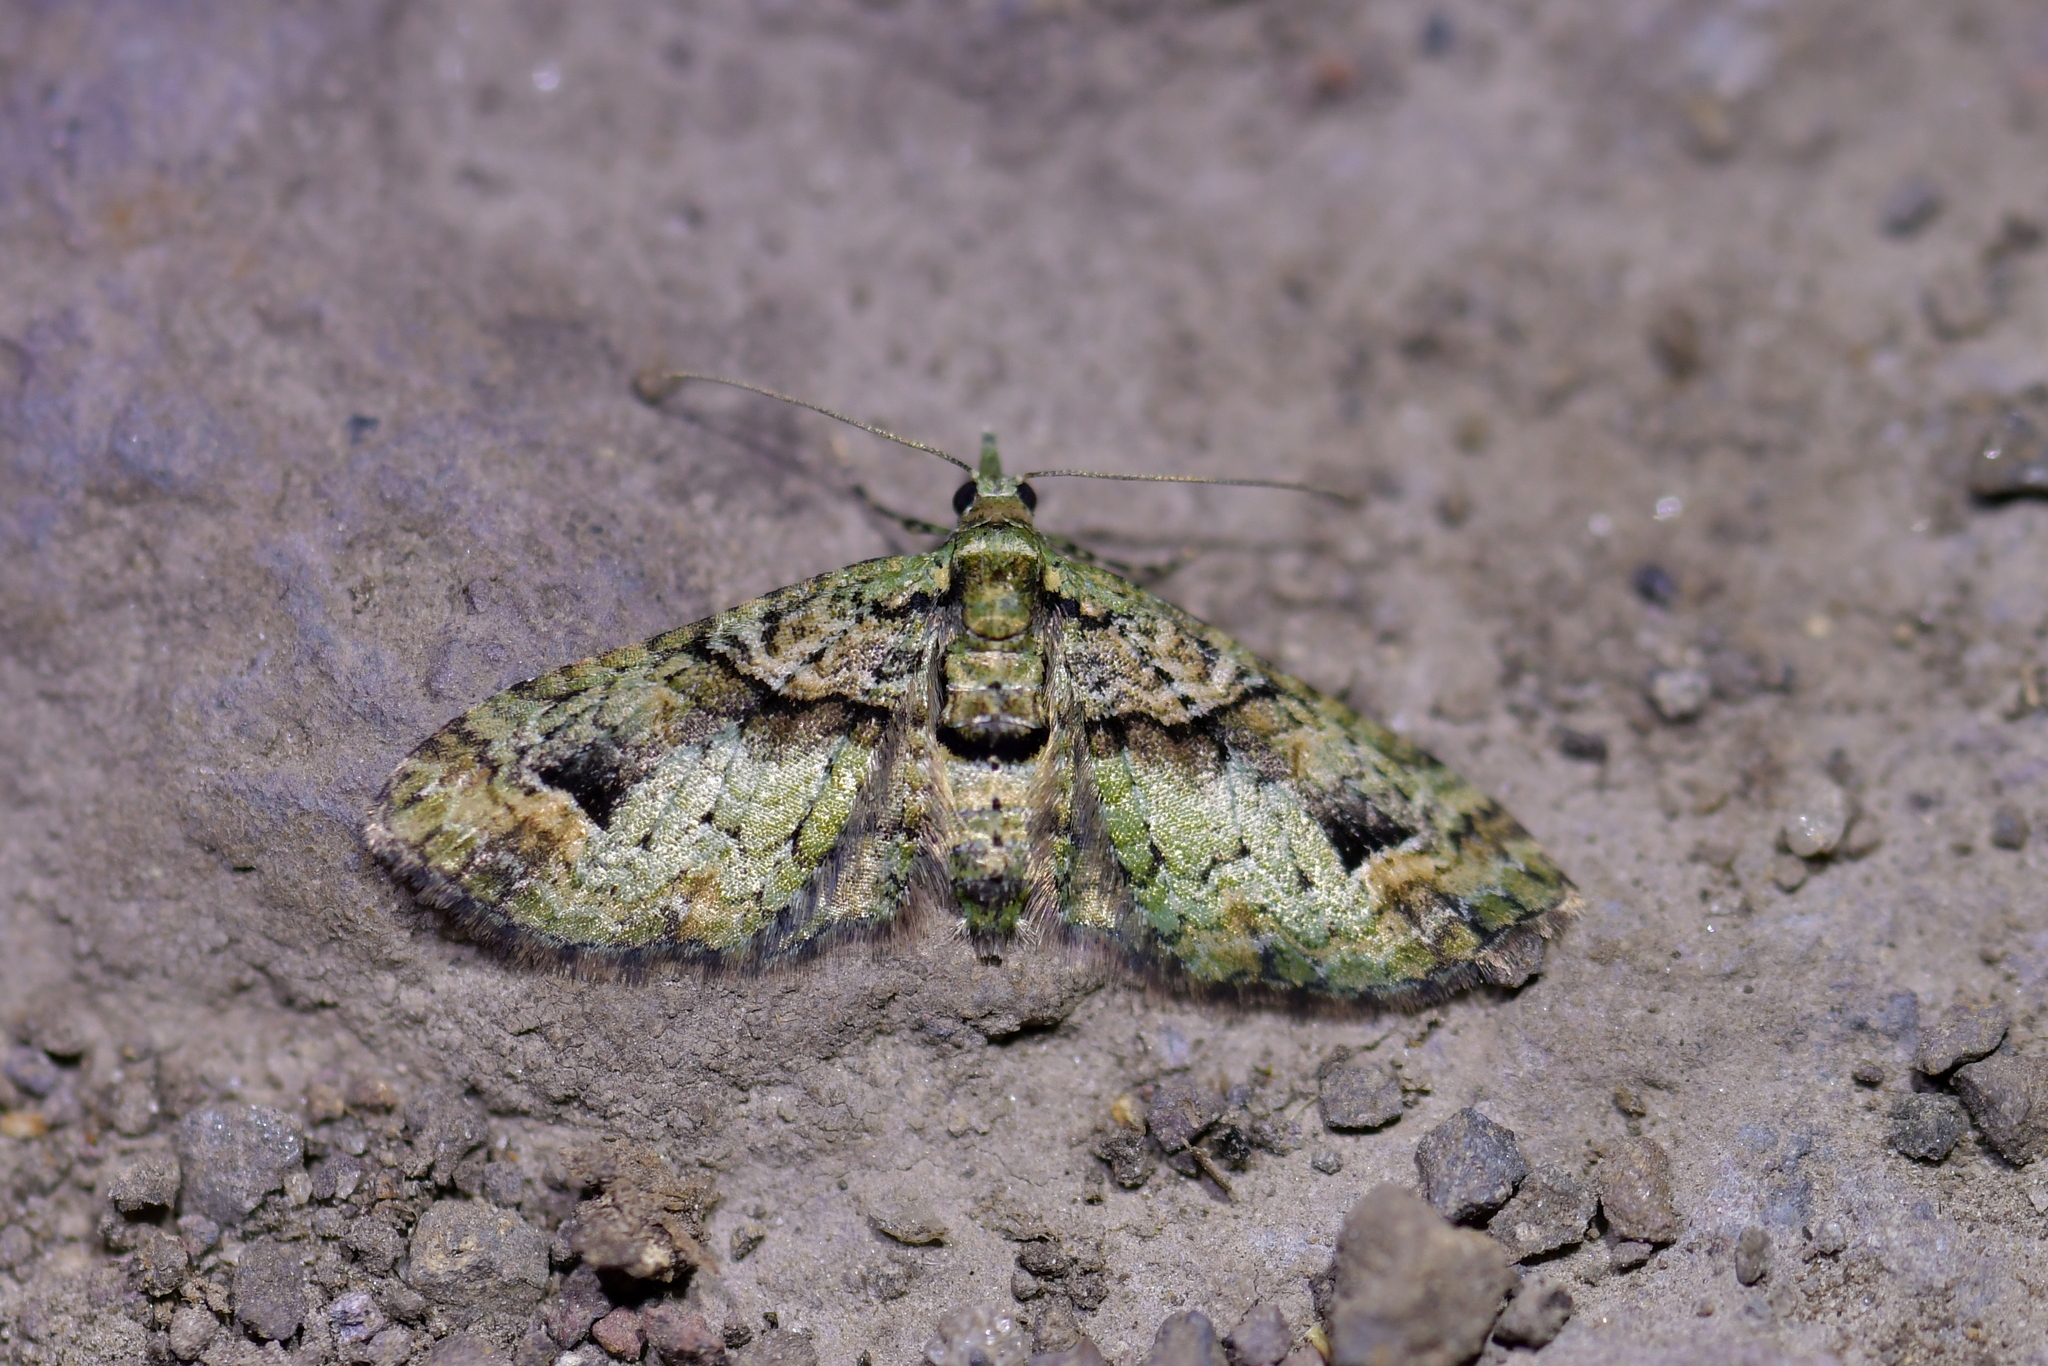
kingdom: Animalia
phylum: Arthropoda
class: Insecta
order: Lepidoptera
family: Geometridae
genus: Idaea
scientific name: Idaea mutanda
